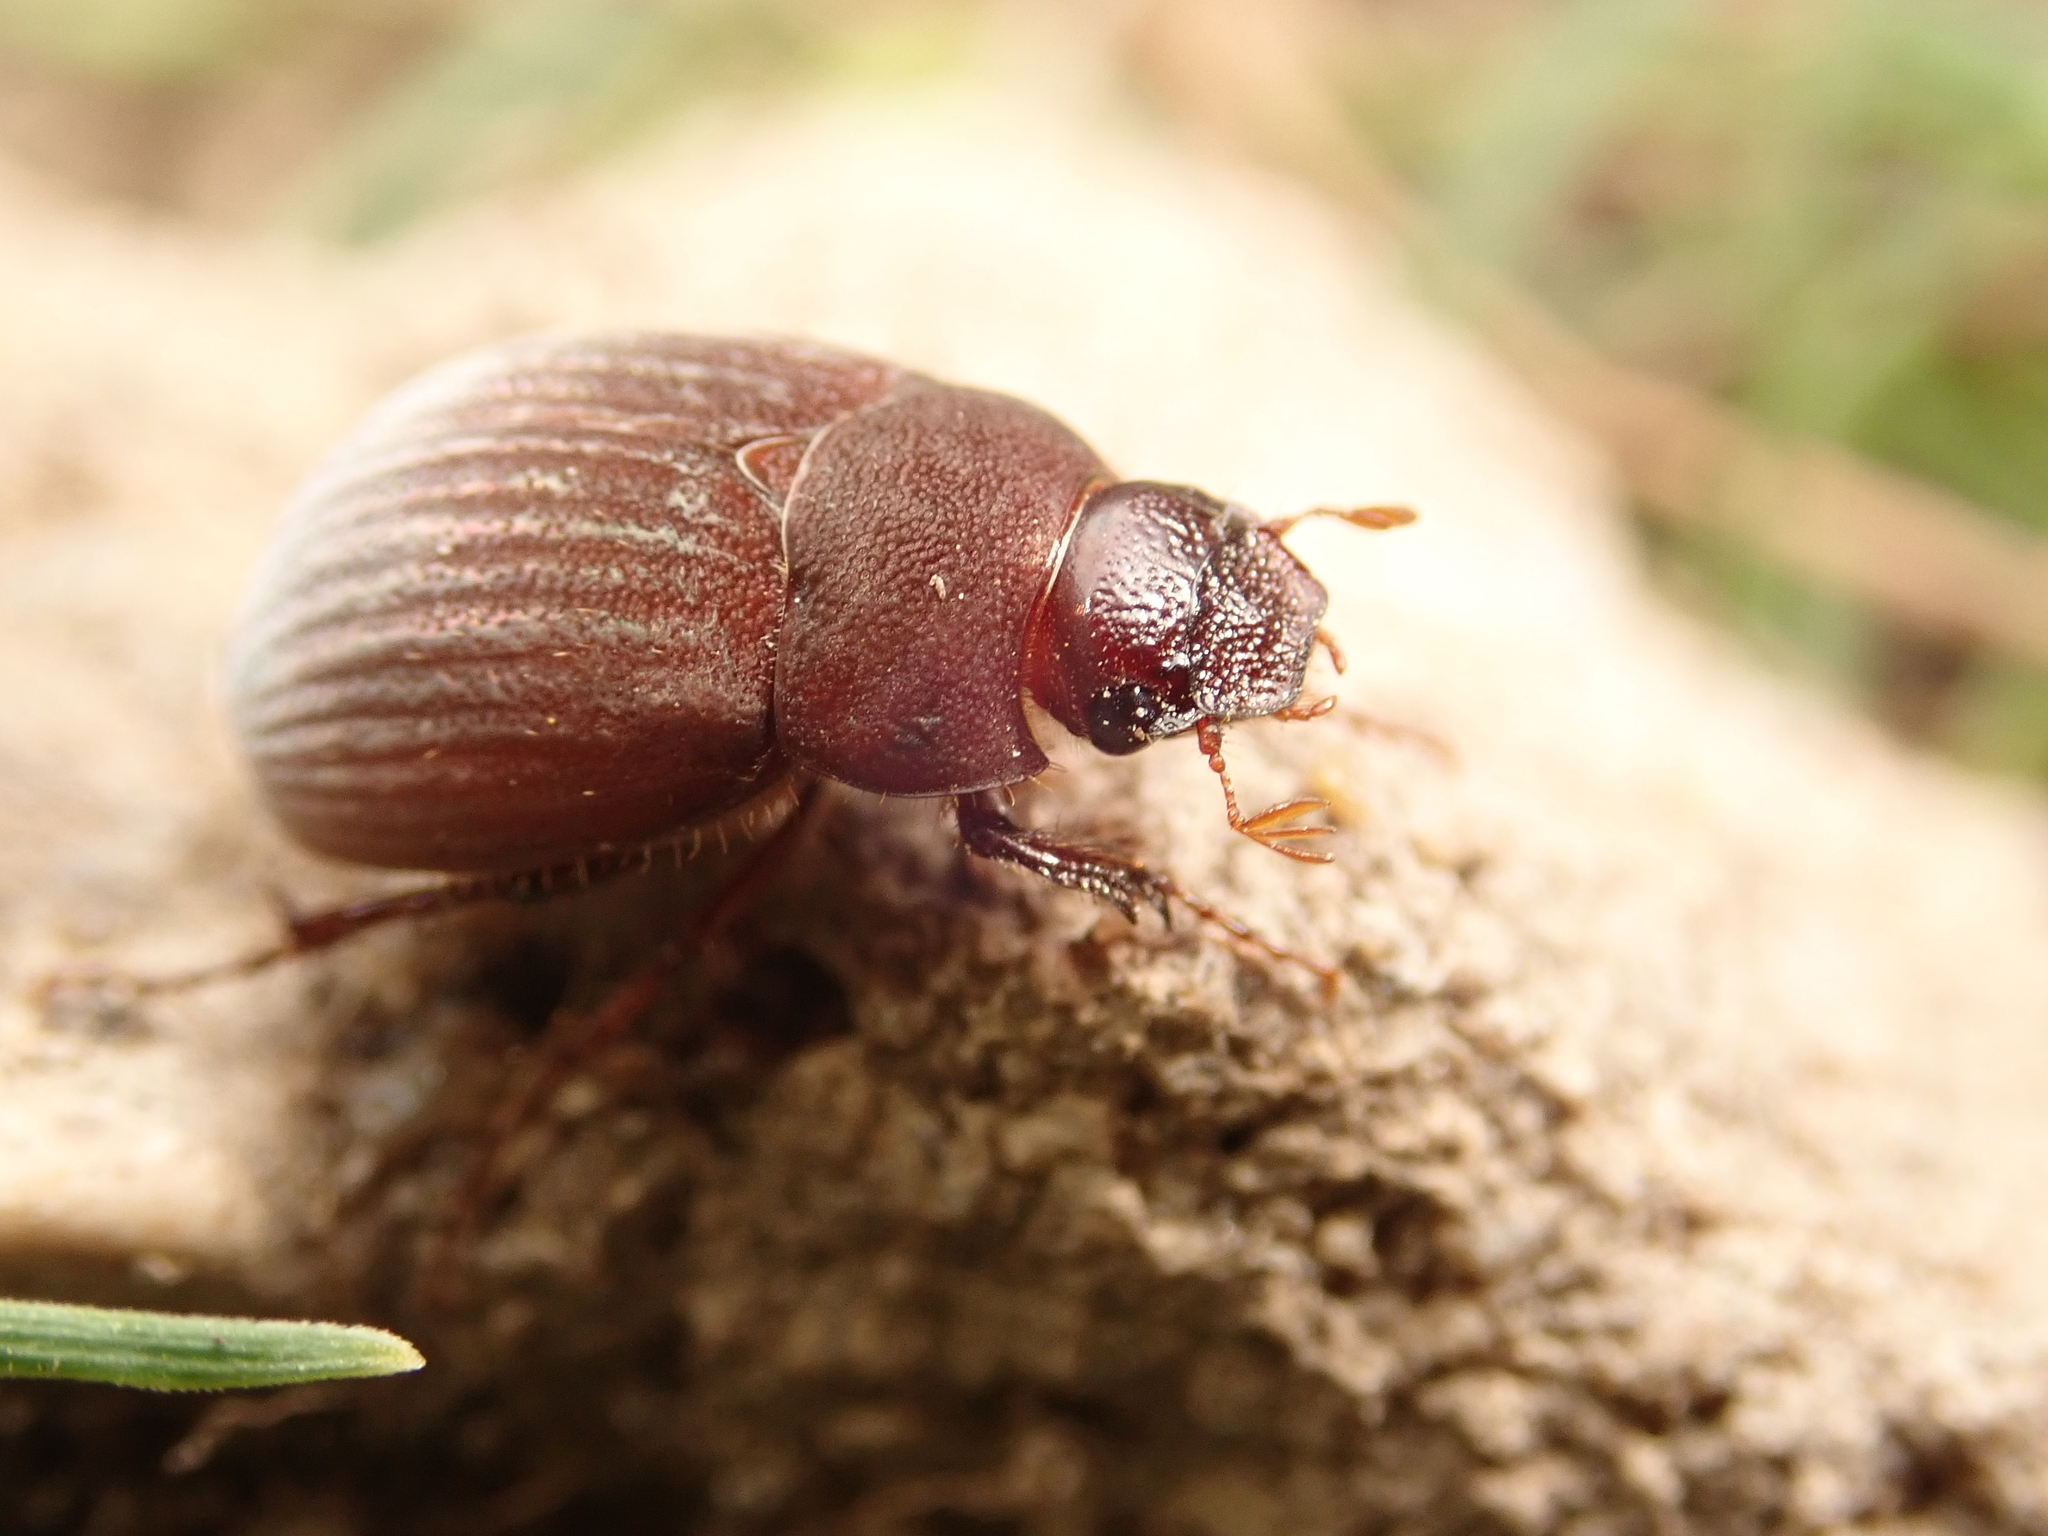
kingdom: Animalia
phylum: Arthropoda
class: Insecta
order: Coleoptera
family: Scarabaeidae
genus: Maladera
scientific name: Maladera holosericea
